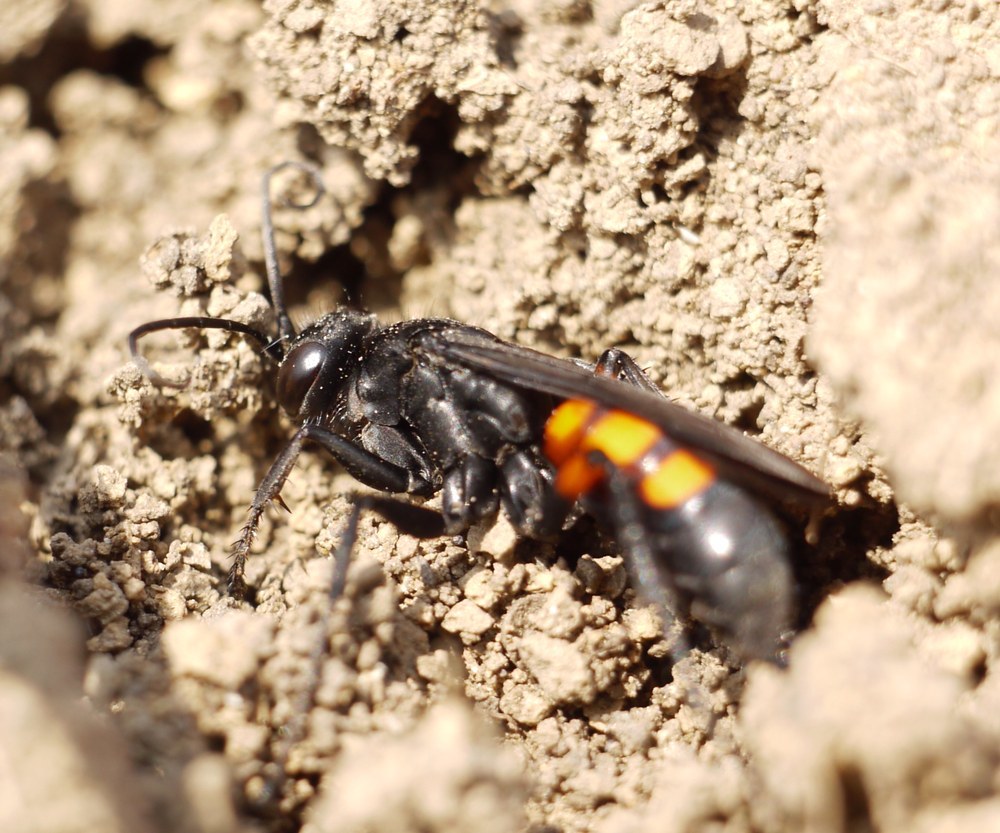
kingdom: Animalia
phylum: Arthropoda
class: Insecta
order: Hymenoptera
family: Pompilidae
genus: Anoplius
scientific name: Anoplius viaticus
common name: Black banded spider wasp
